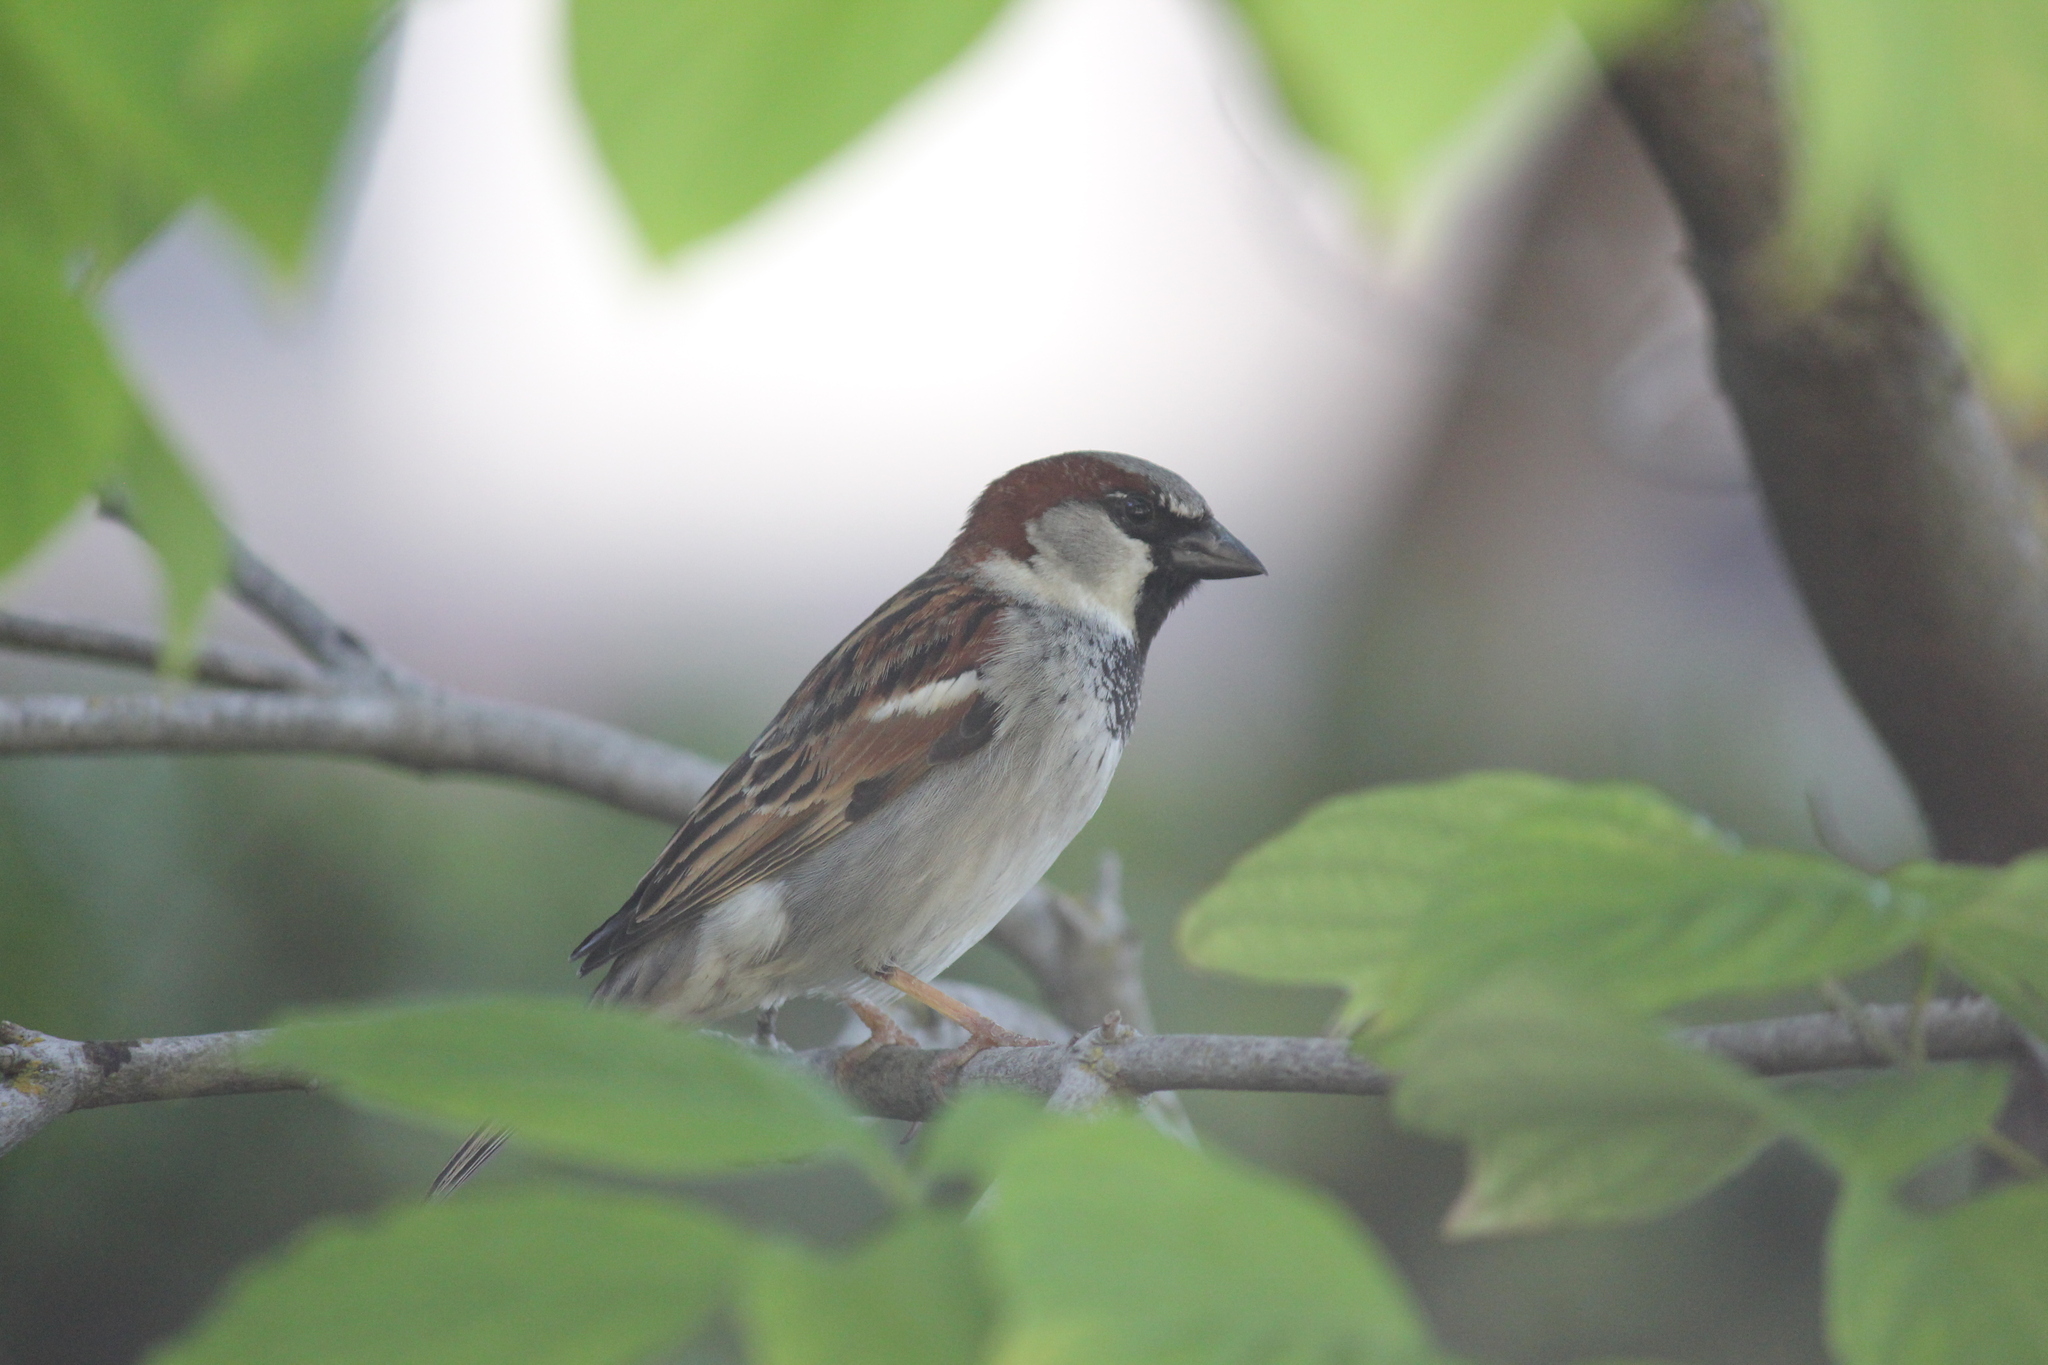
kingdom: Animalia
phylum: Chordata
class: Aves
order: Passeriformes
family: Passeridae
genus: Passer
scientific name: Passer domesticus
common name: House sparrow
